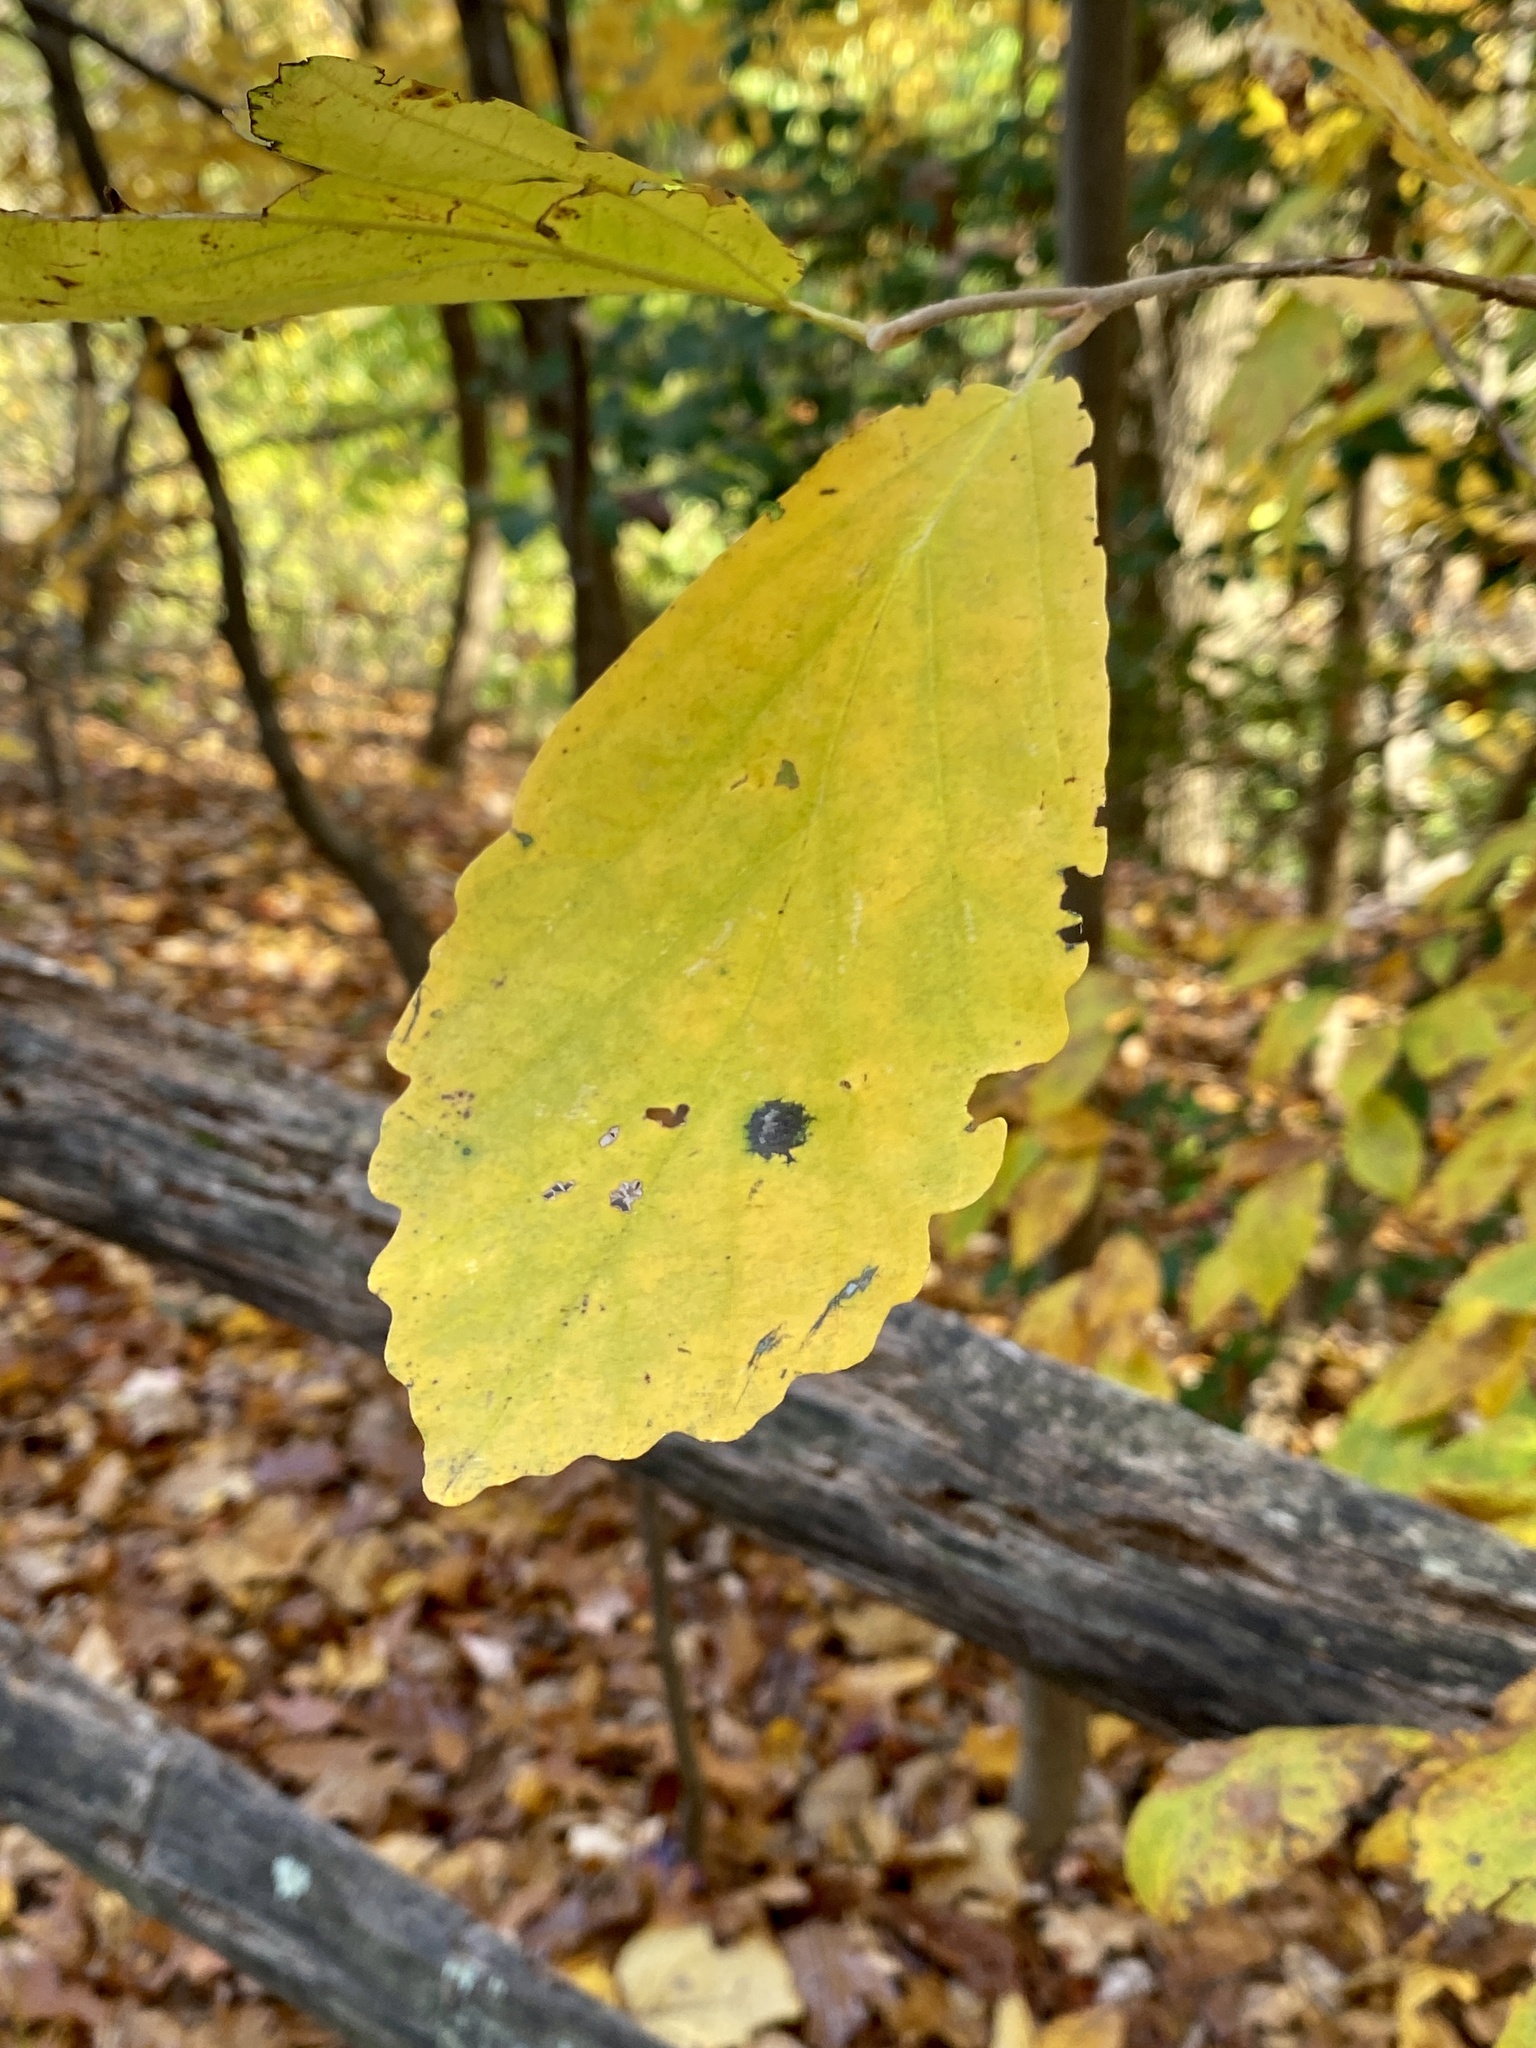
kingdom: Plantae
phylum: Tracheophyta
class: Magnoliopsida
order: Saxifragales
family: Hamamelidaceae
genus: Hamamelis
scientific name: Hamamelis virginiana
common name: Witch-hazel
